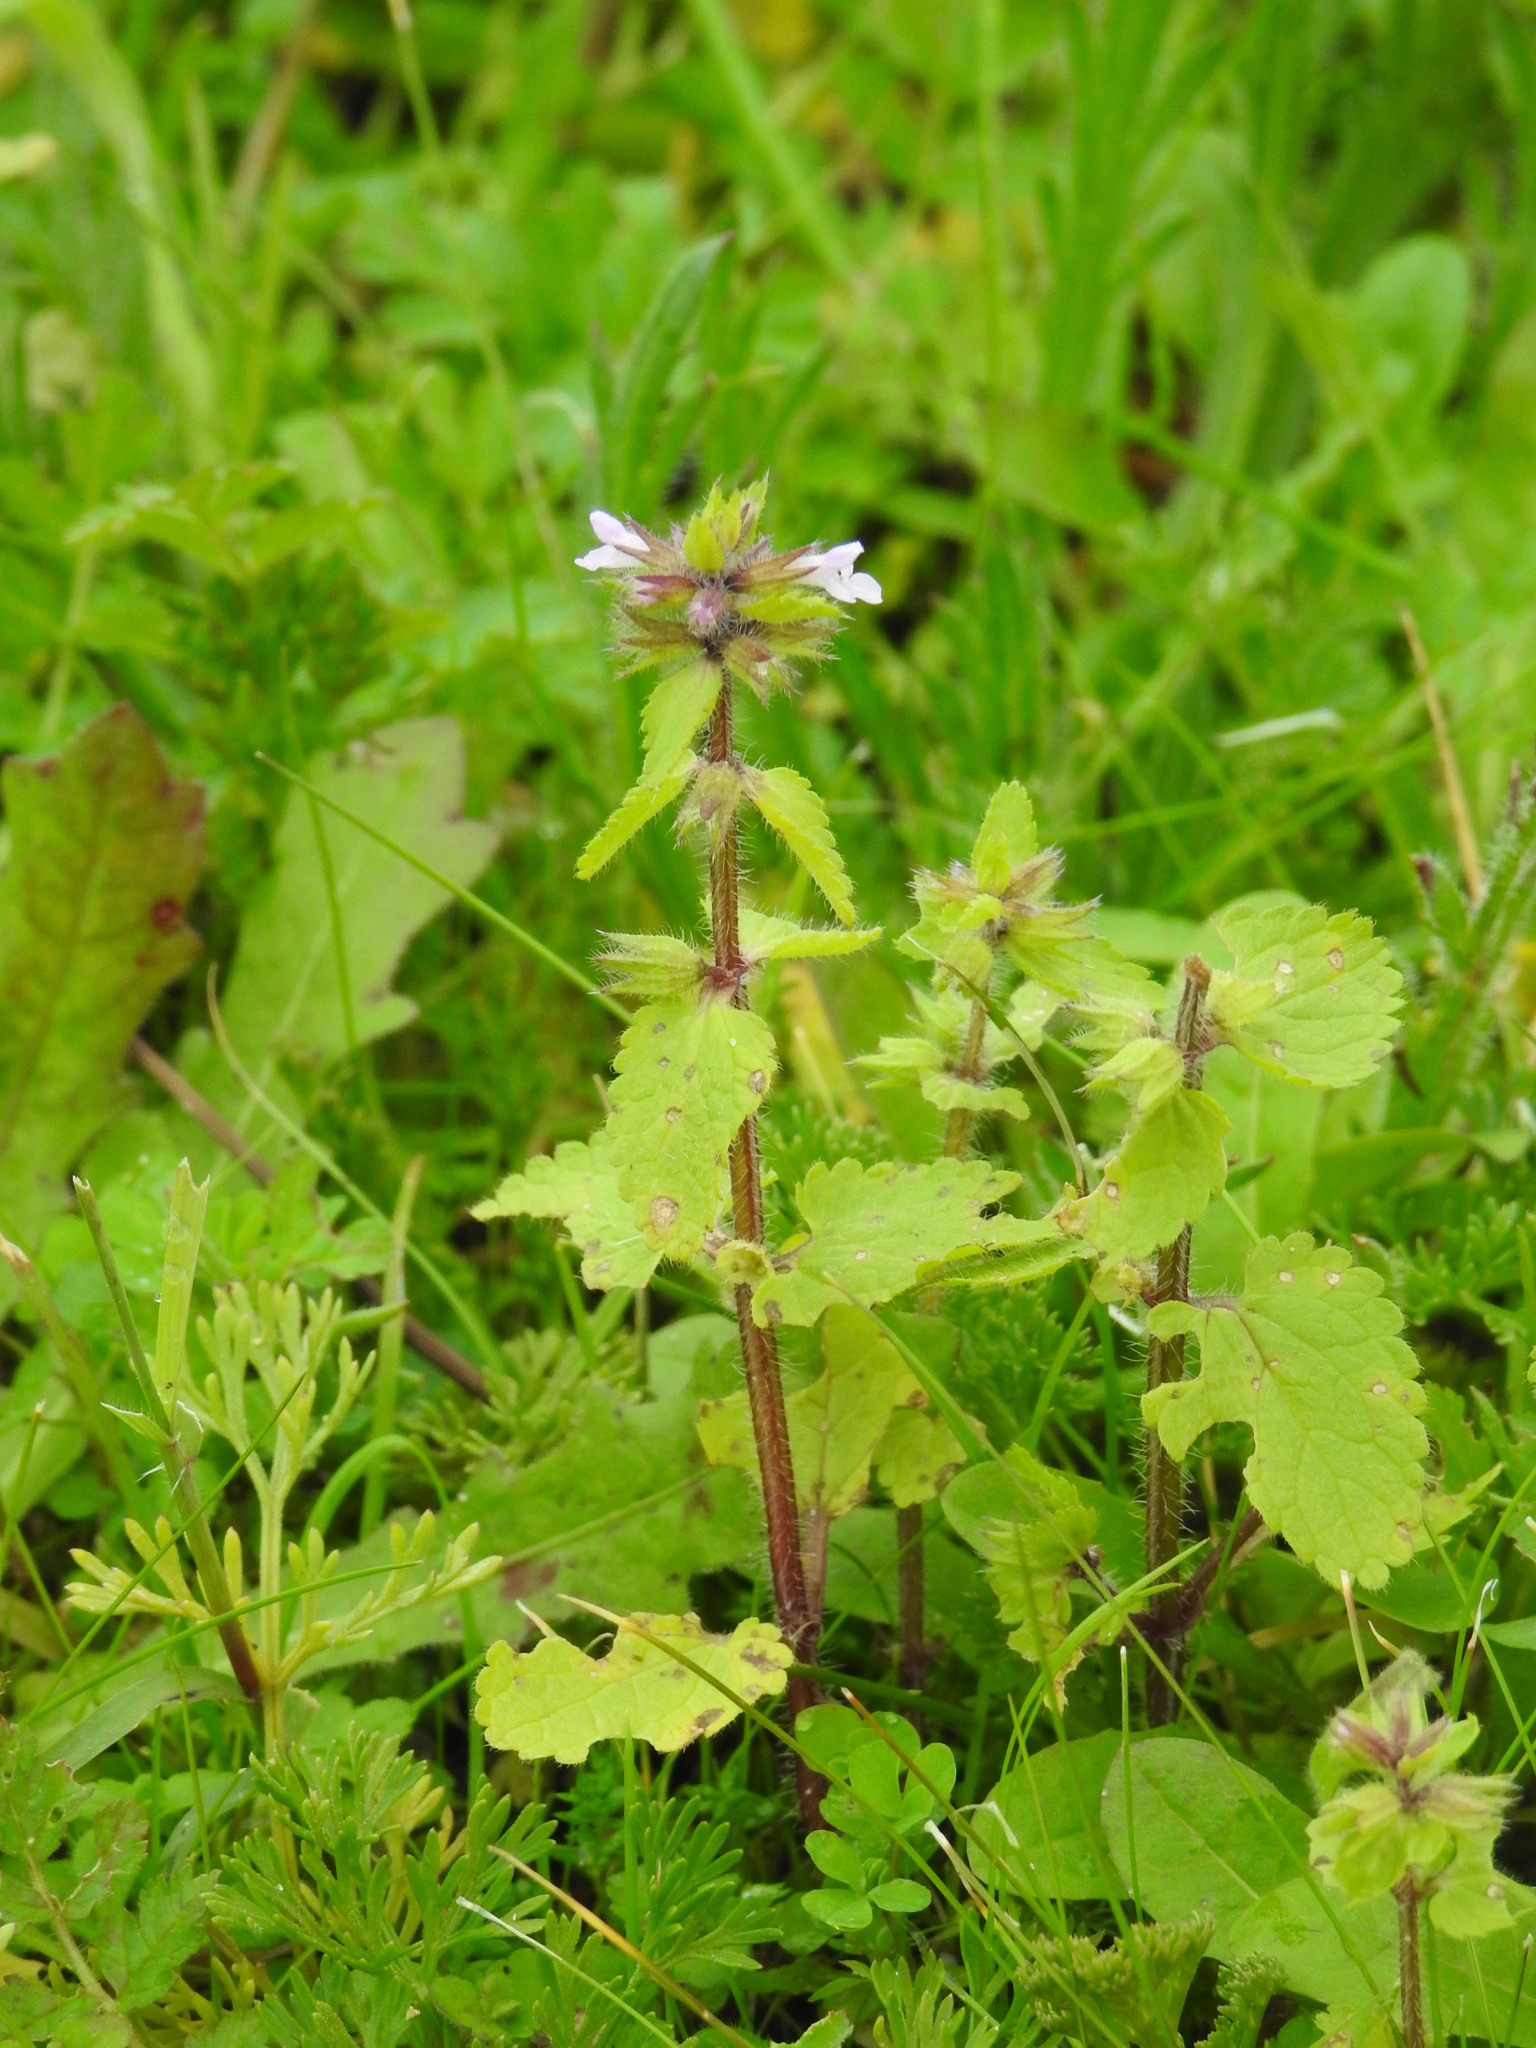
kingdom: Plantae
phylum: Tracheophyta
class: Magnoliopsida
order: Lamiales
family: Lamiaceae
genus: Stachys
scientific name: Stachys arvensis
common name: Field woundwort
